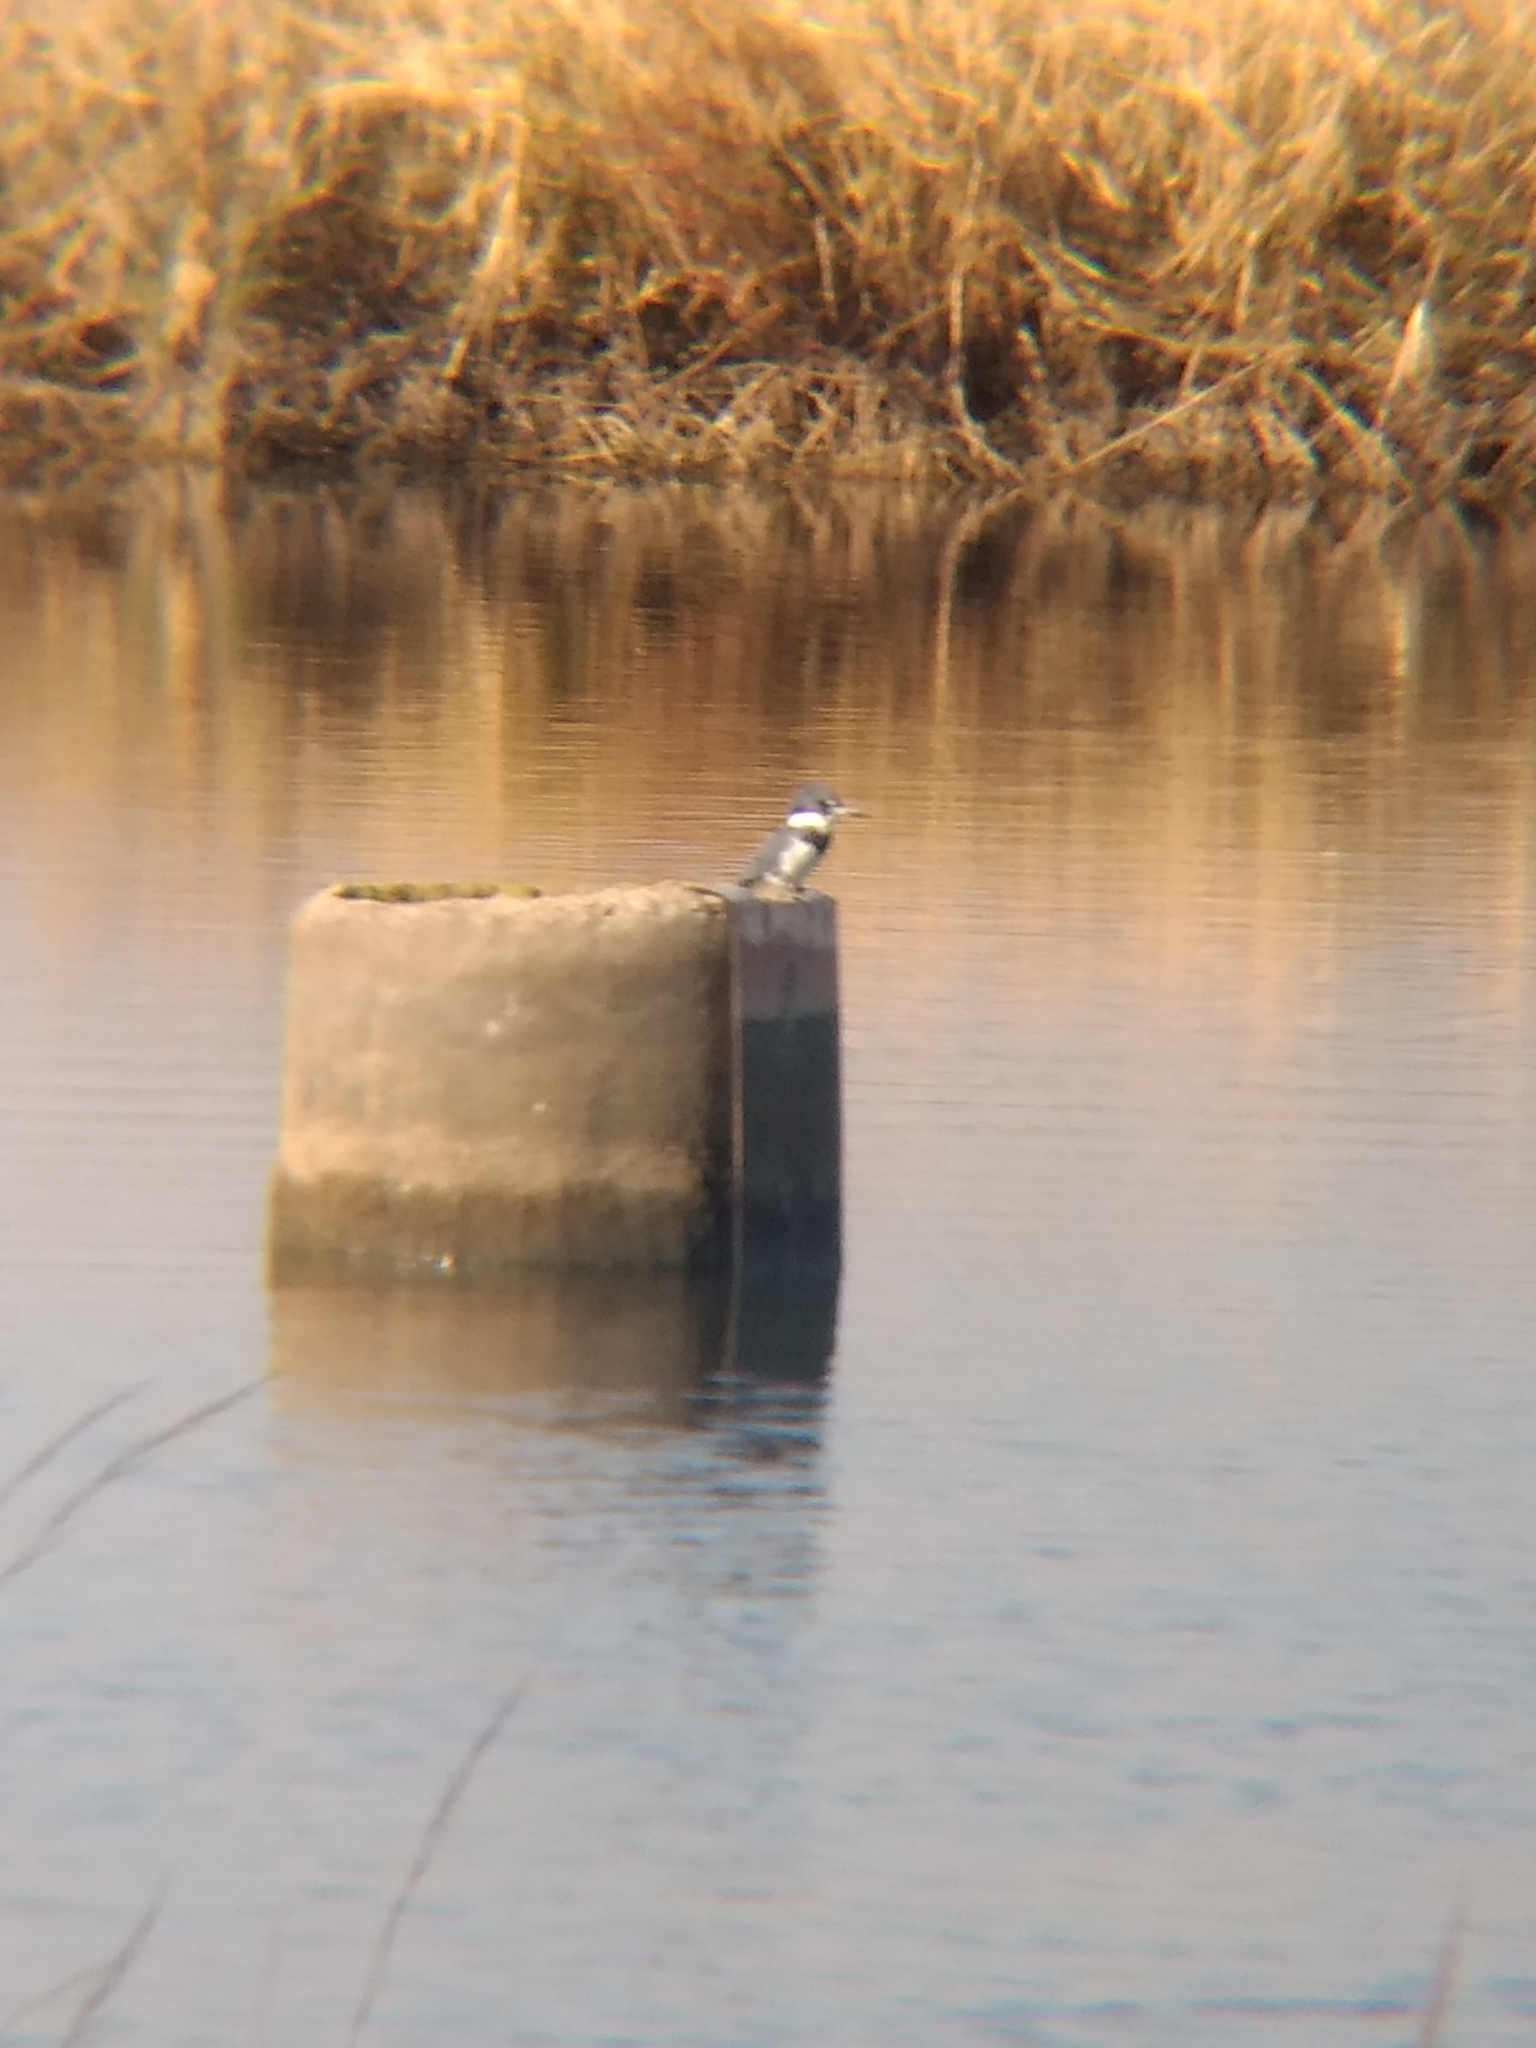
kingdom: Animalia
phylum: Chordata
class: Aves
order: Coraciiformes
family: Alcedinidae
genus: Megaceryle
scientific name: Megaceryle alcyon
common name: Belted kingfisher
